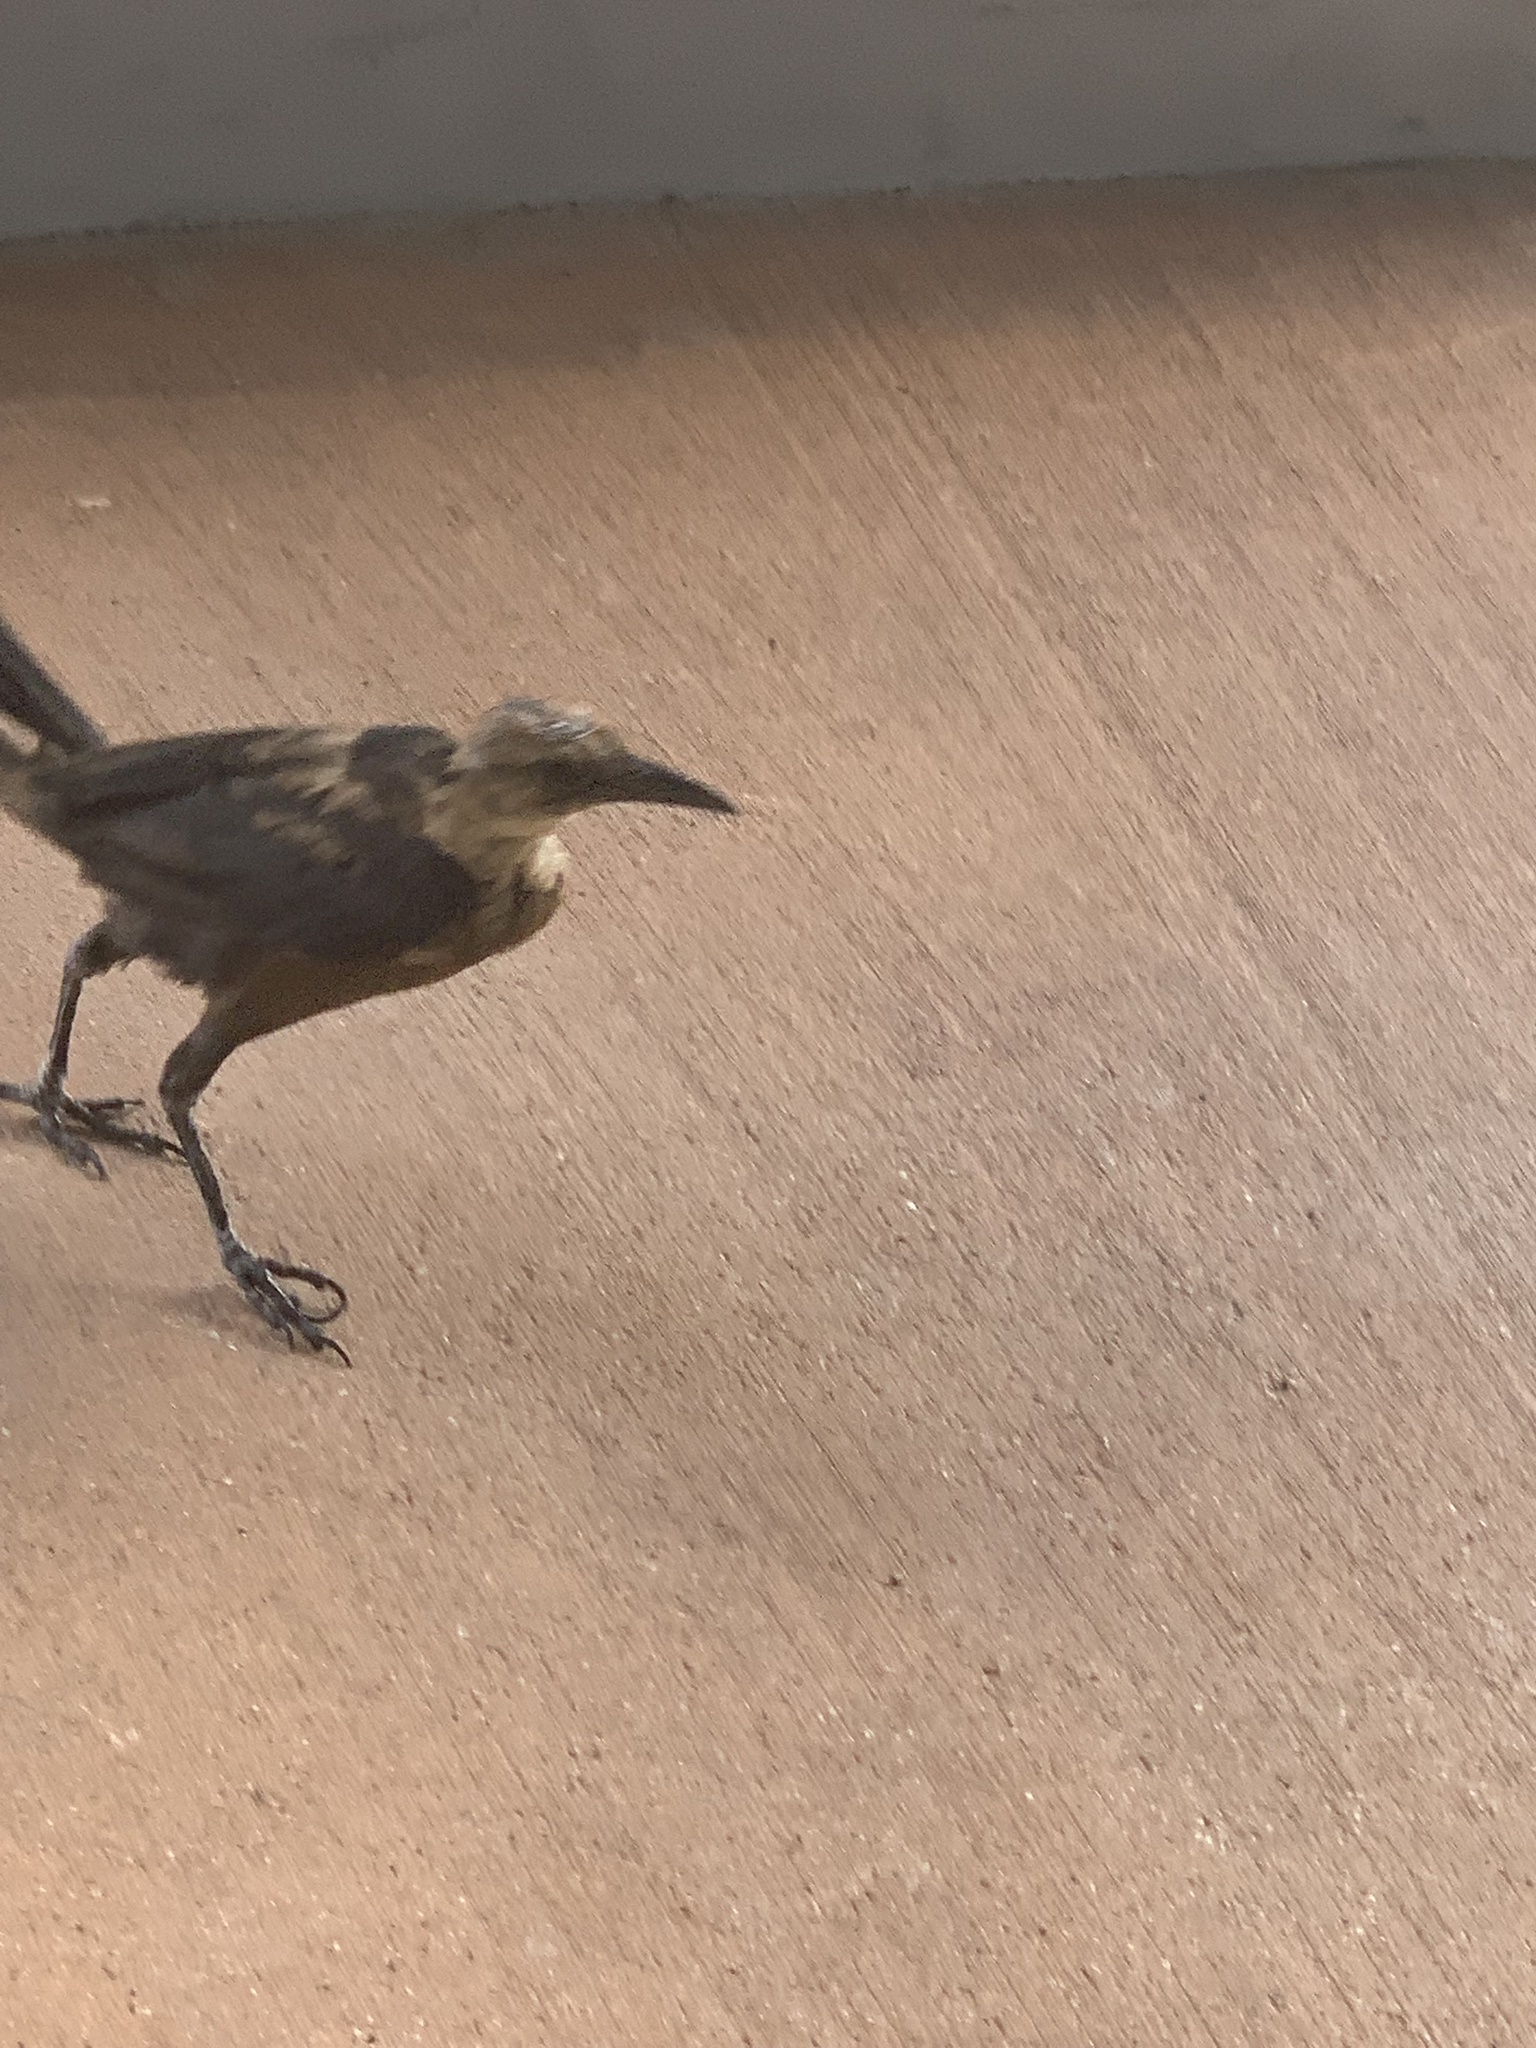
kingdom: Animalia
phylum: Chordata
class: Aves
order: Passeriformes
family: Icteridae
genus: Quiscalus
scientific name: Quiscalus major
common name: Boat-tailed grackle
